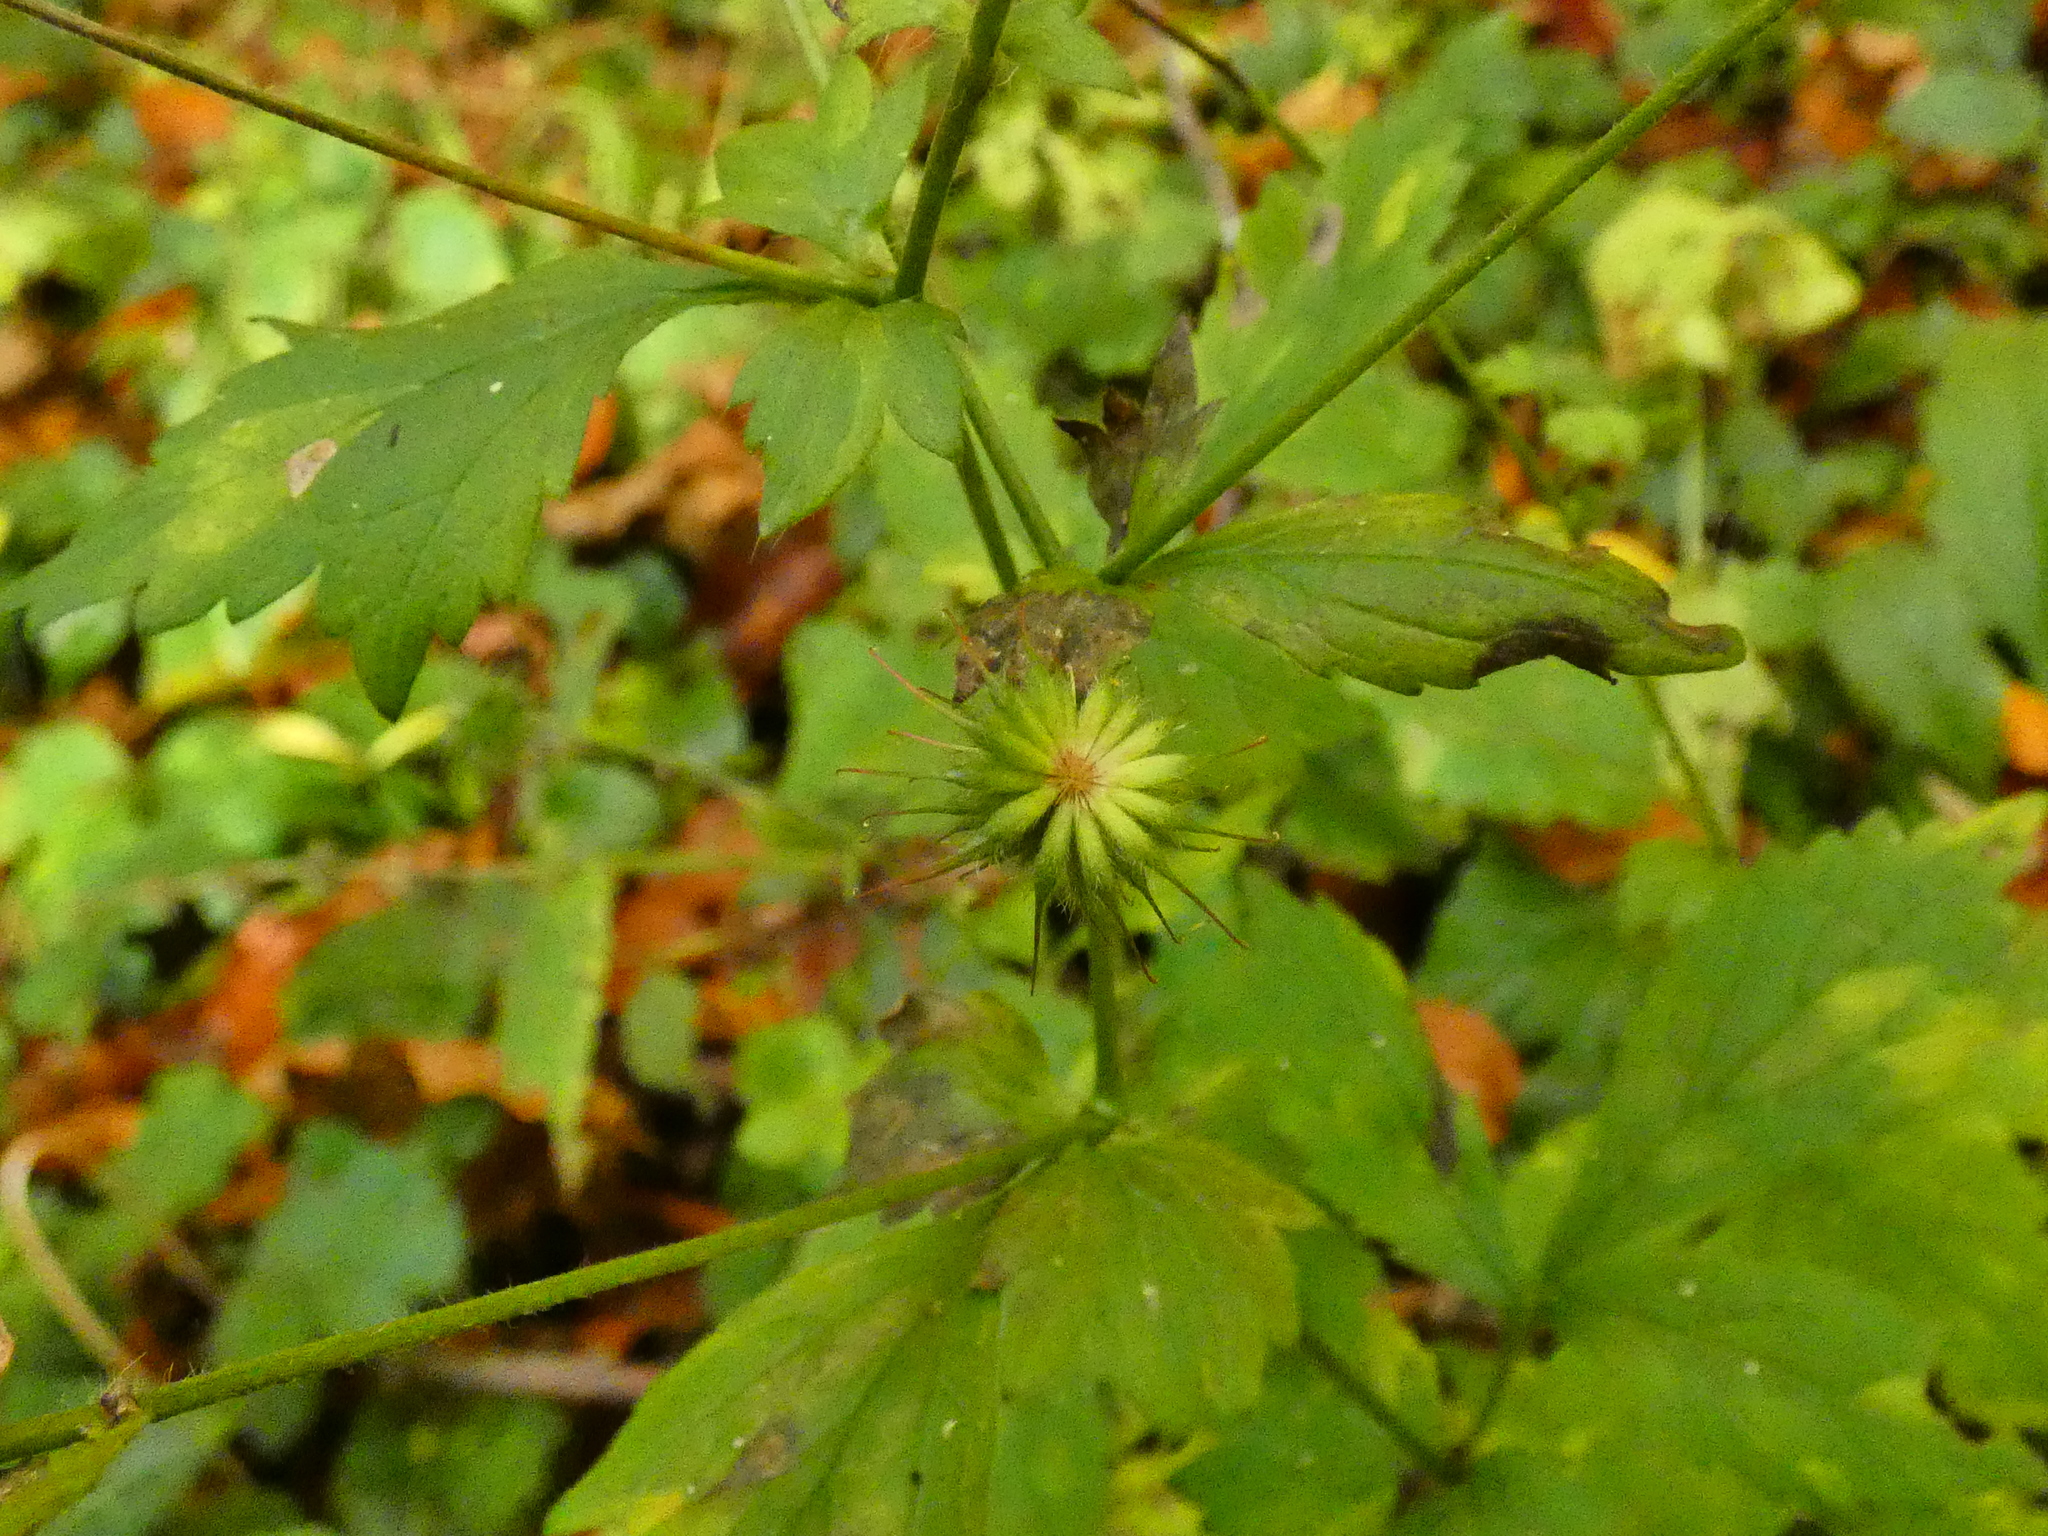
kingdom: Plantae
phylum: Tracheophyta
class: Magnoliopsida
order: Rosales
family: Rosaceae
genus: Geum
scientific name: Geum urbanum
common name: Wood avens
